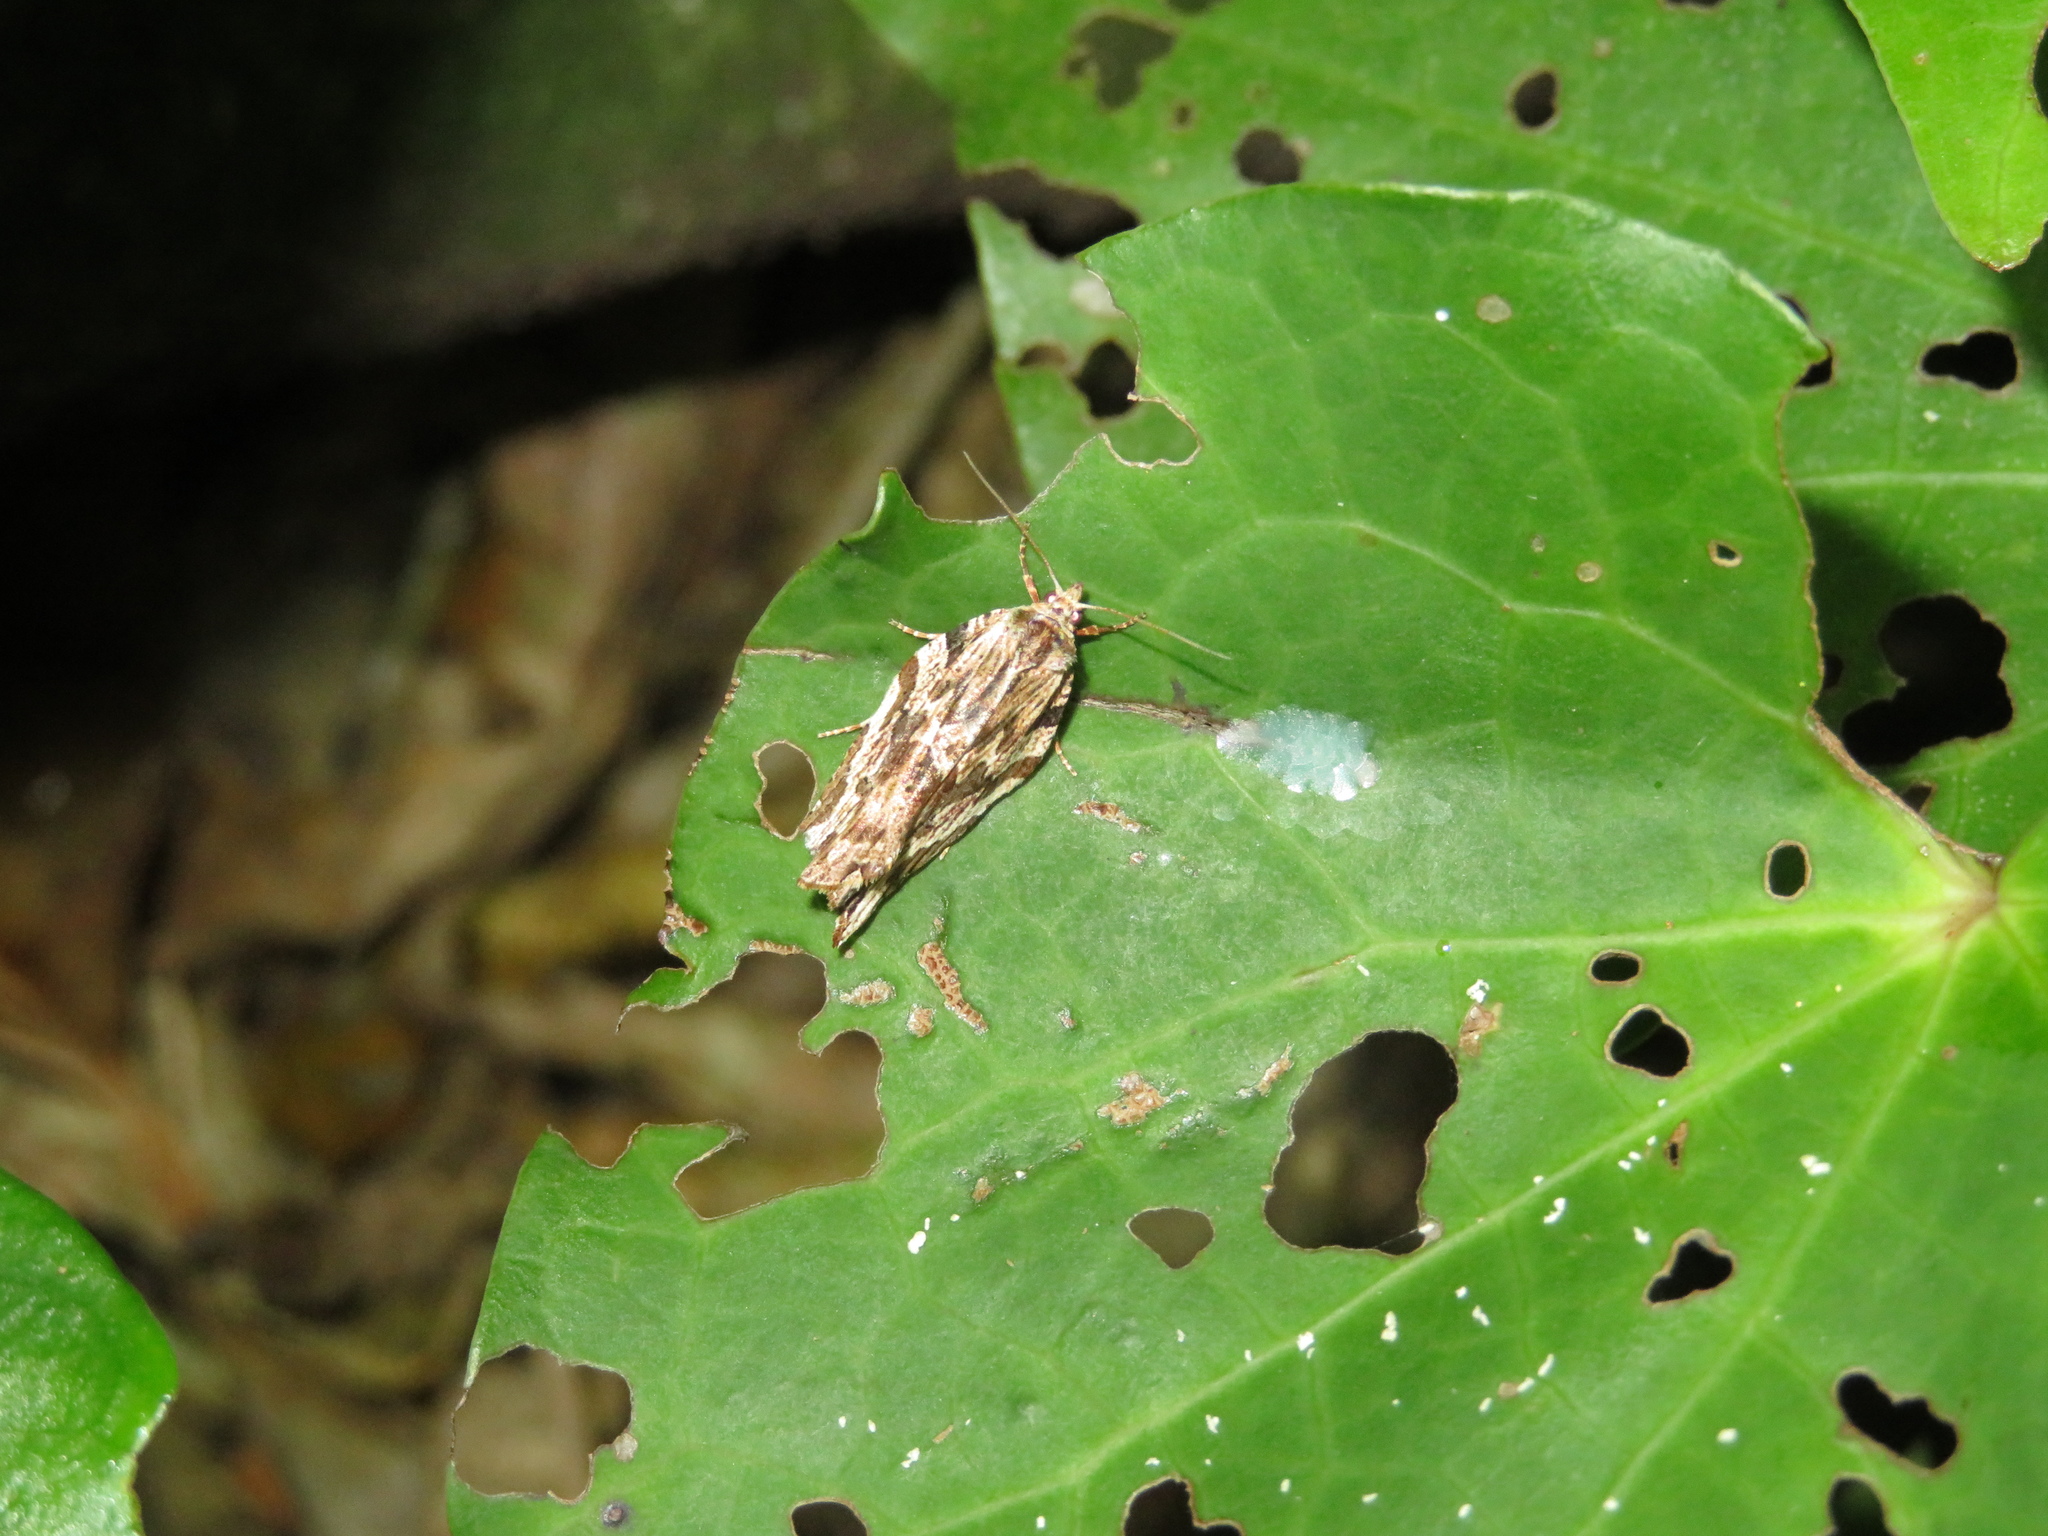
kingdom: Animalia
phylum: Arthropoda
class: Insecta
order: Lepidoptera
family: Tortricidae
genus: Epalxiphora
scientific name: Epalxiphora axenana
